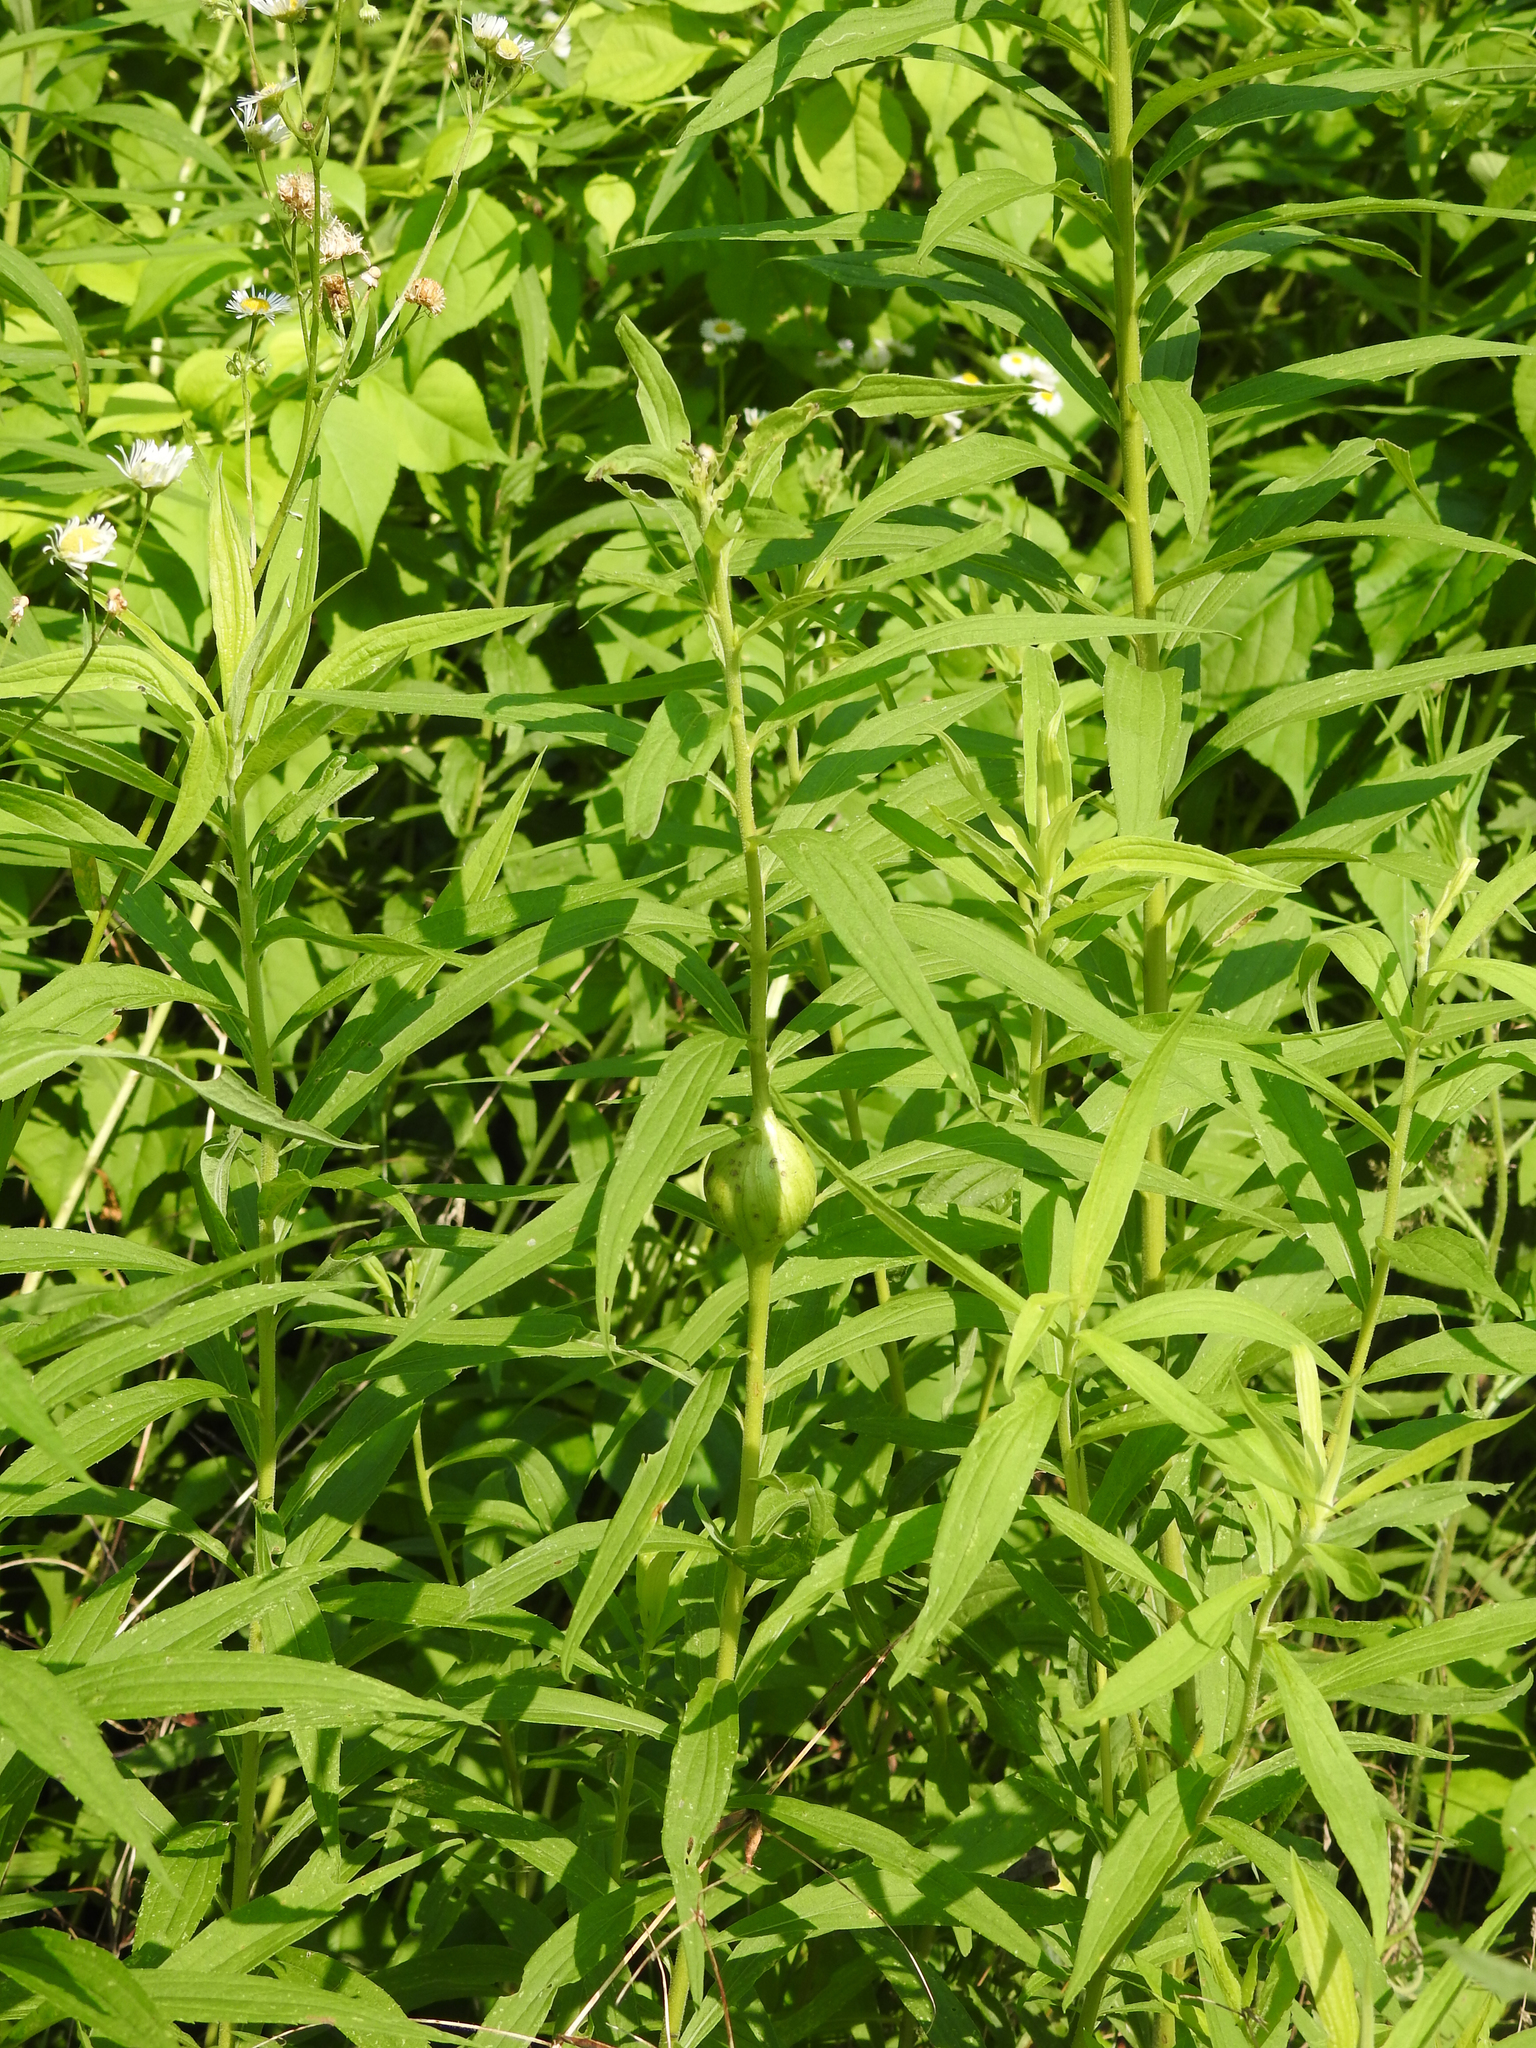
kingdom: Animalia
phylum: Arthropoda
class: Insecta
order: Diptera
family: Tephritidae
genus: Eurosta
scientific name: Eurosta solidaginis
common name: Goldenrod gall fly
